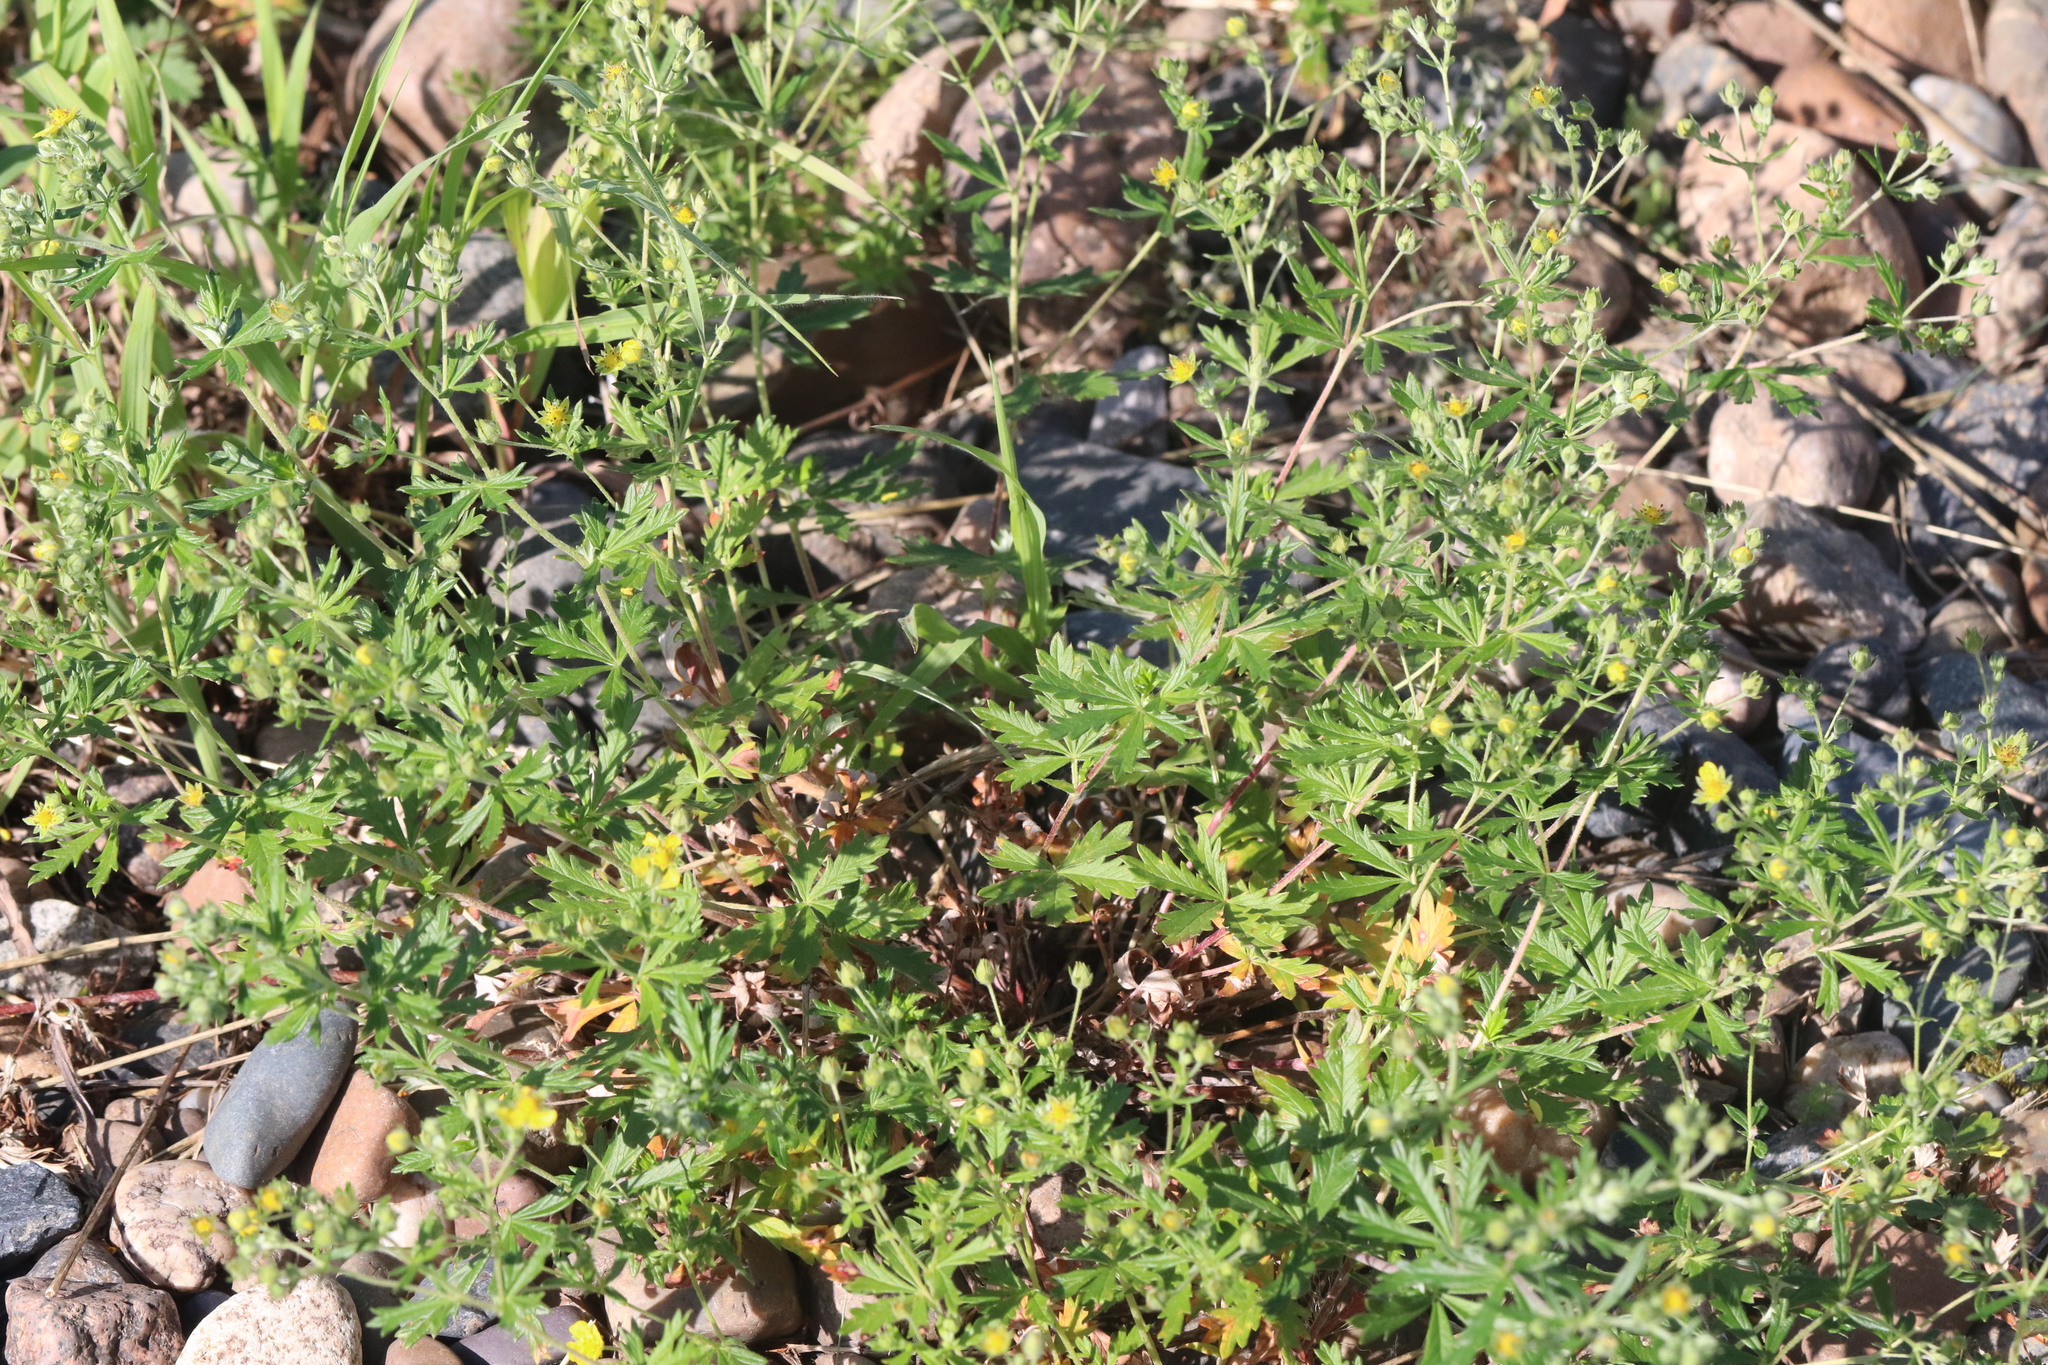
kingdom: Plantae
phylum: Tracheophyta
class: Magnoliopsida
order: Rosales
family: Rosaceae
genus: Potentilla
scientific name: Potentilla argentea
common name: Hoary cinquefoil
